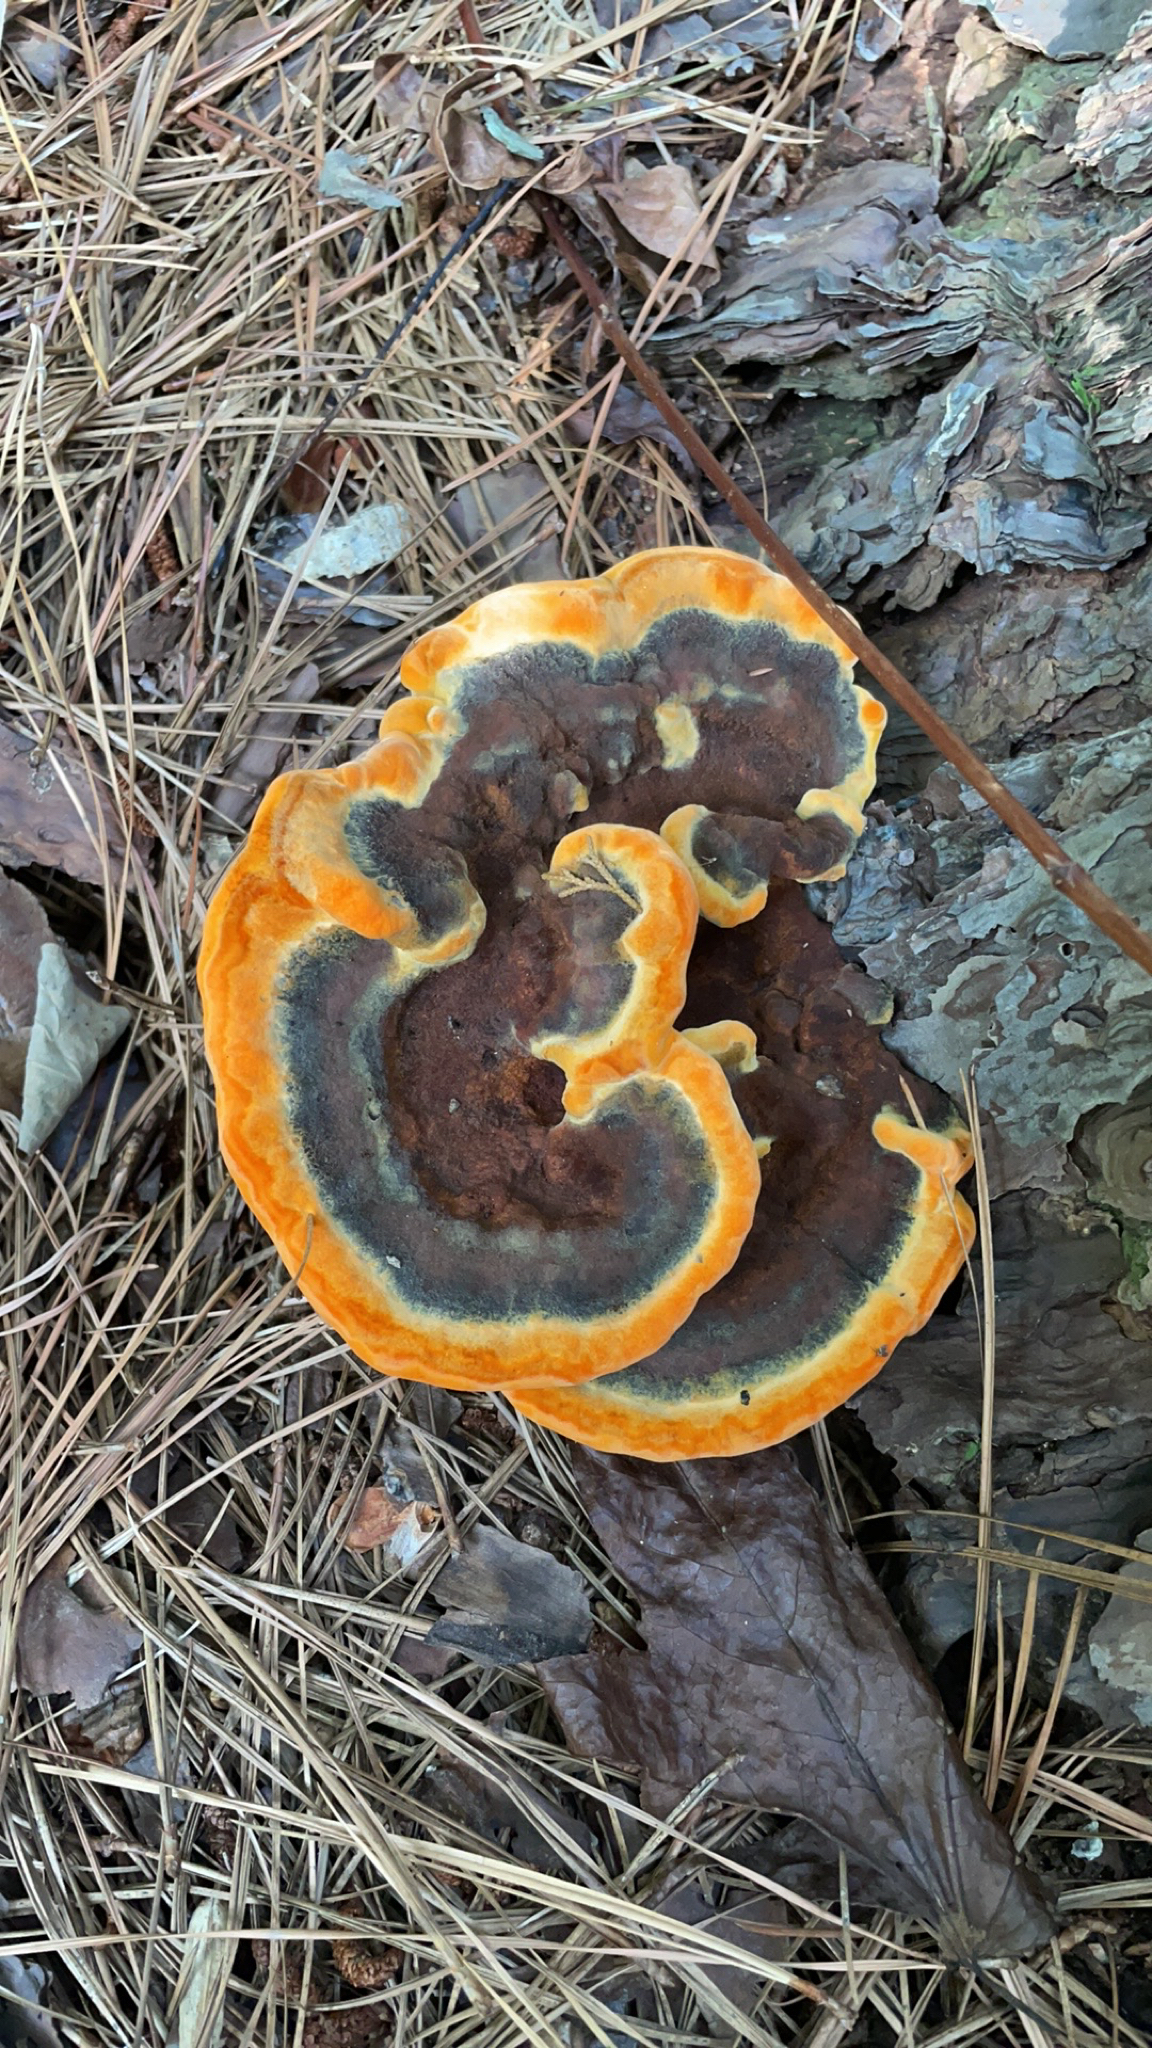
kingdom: Fungi
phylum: Basidiomycota
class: Agaricomycetes
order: Polyporales
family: Laetiporaceae
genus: Phaeolus
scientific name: Phaeolus schweinitzii
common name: Dyer's mazegill
